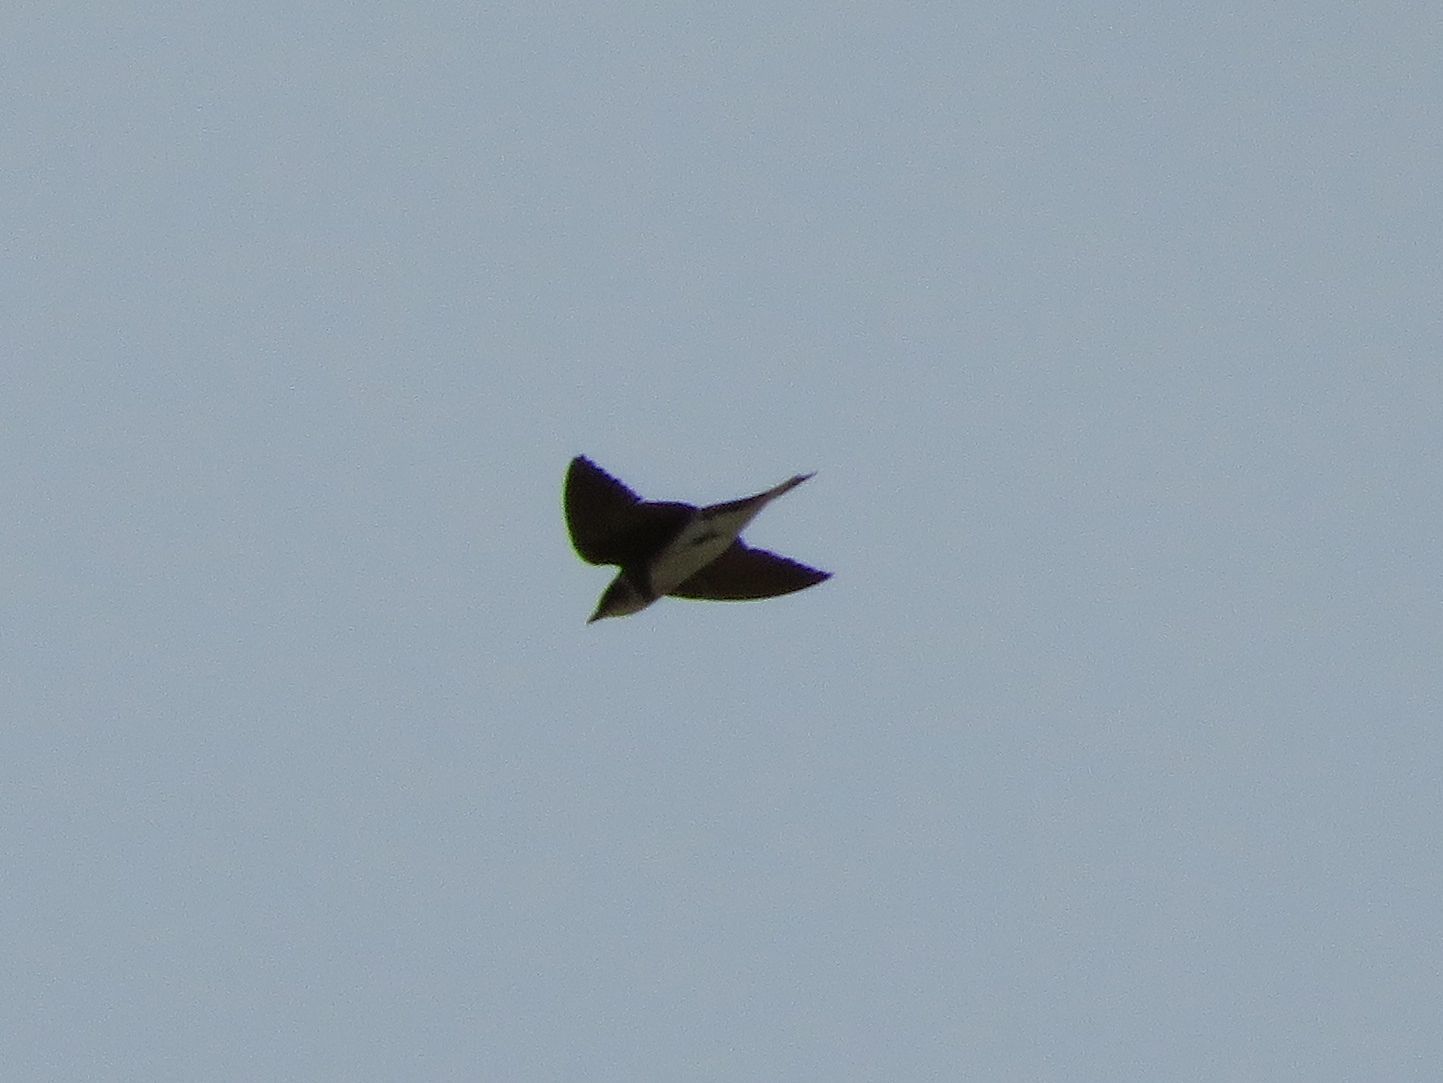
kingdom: Animalia
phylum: Chordata
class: Aves
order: Passeriformes
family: Hirundinidae
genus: Progne
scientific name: Progne tapera
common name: Brown-chested martin
